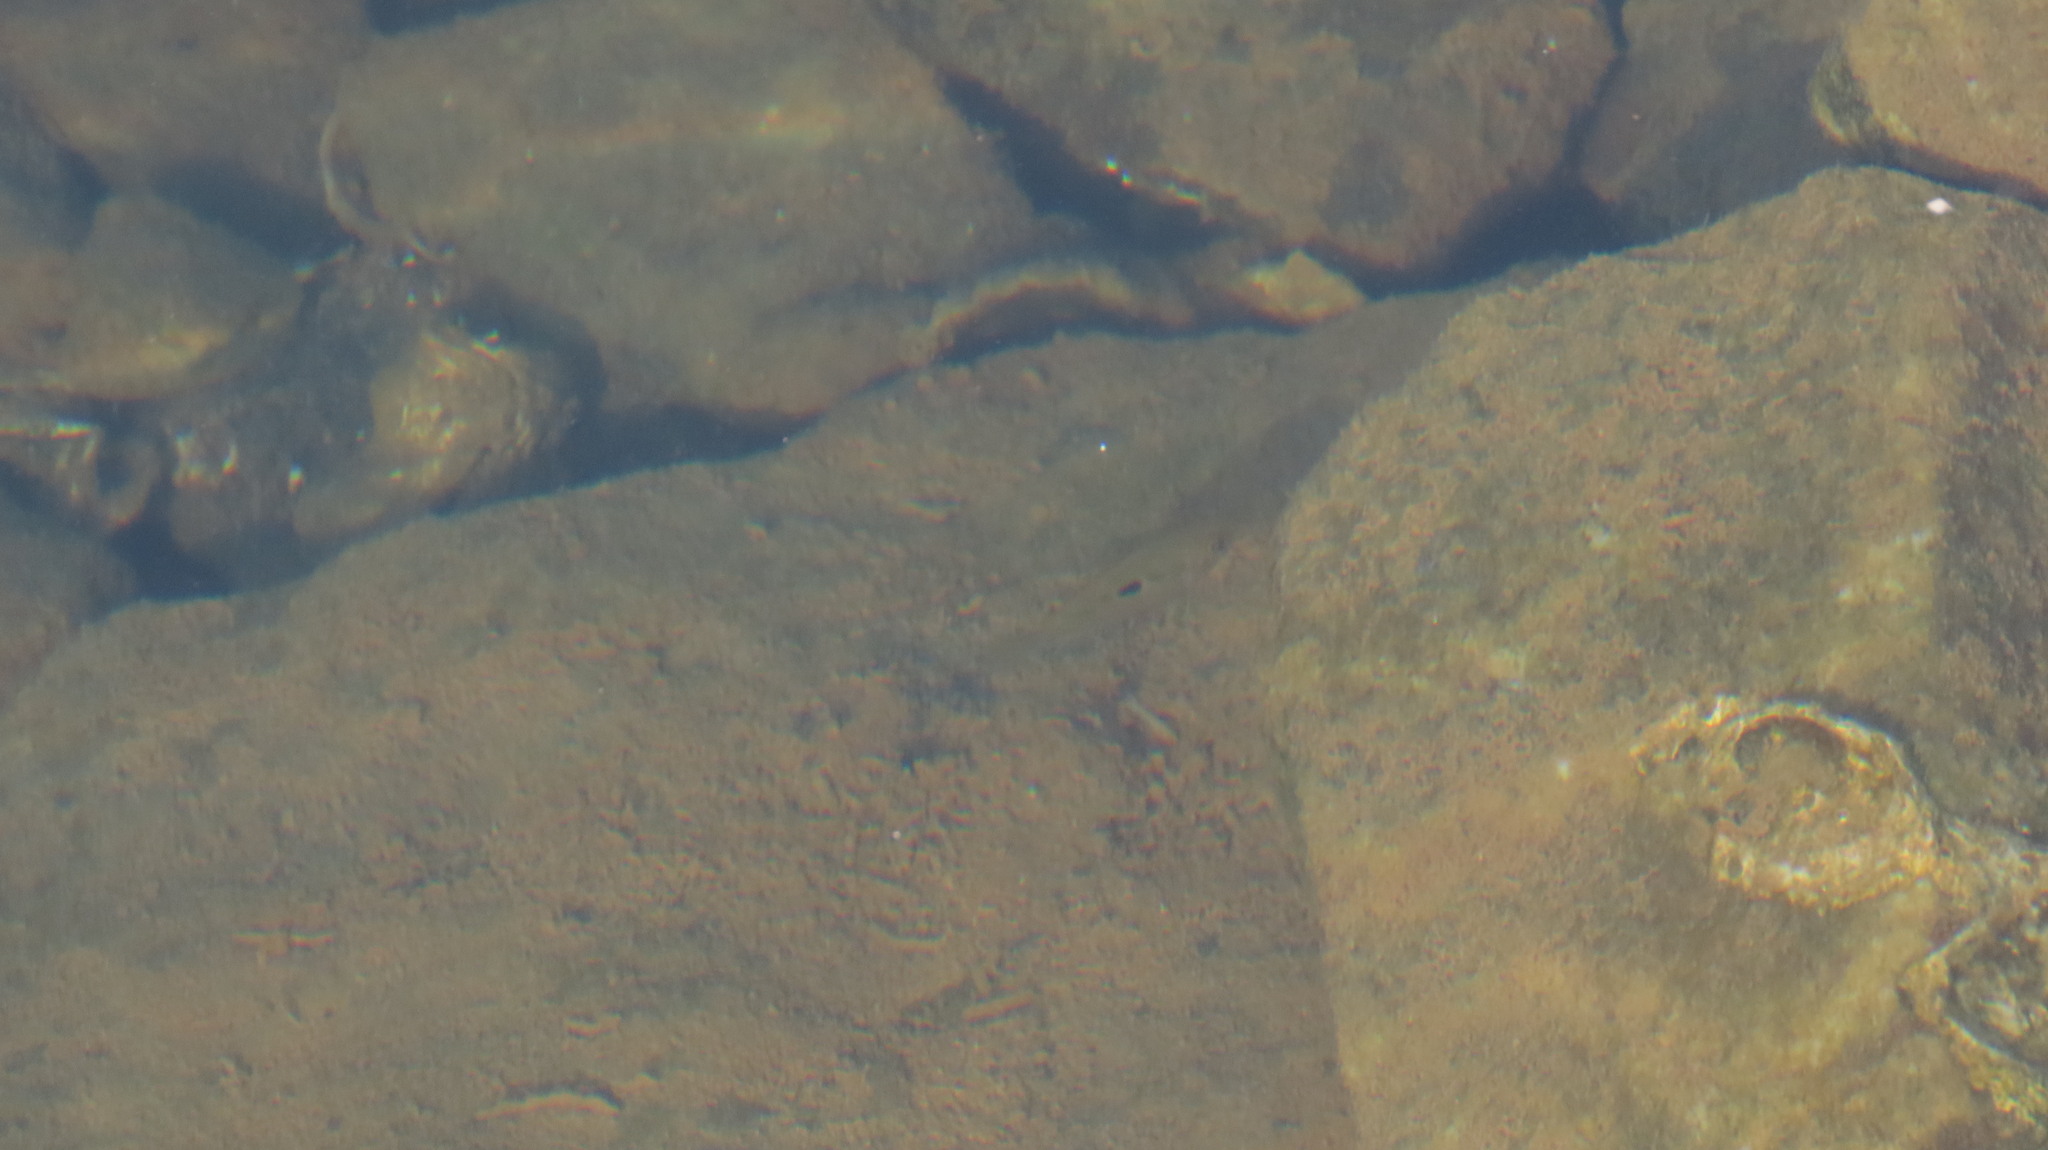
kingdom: Animalia
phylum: Chordata
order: Perciformes
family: Cichlidae
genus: Etroplus
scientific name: Etroplus maculatus
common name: Orange chromide
